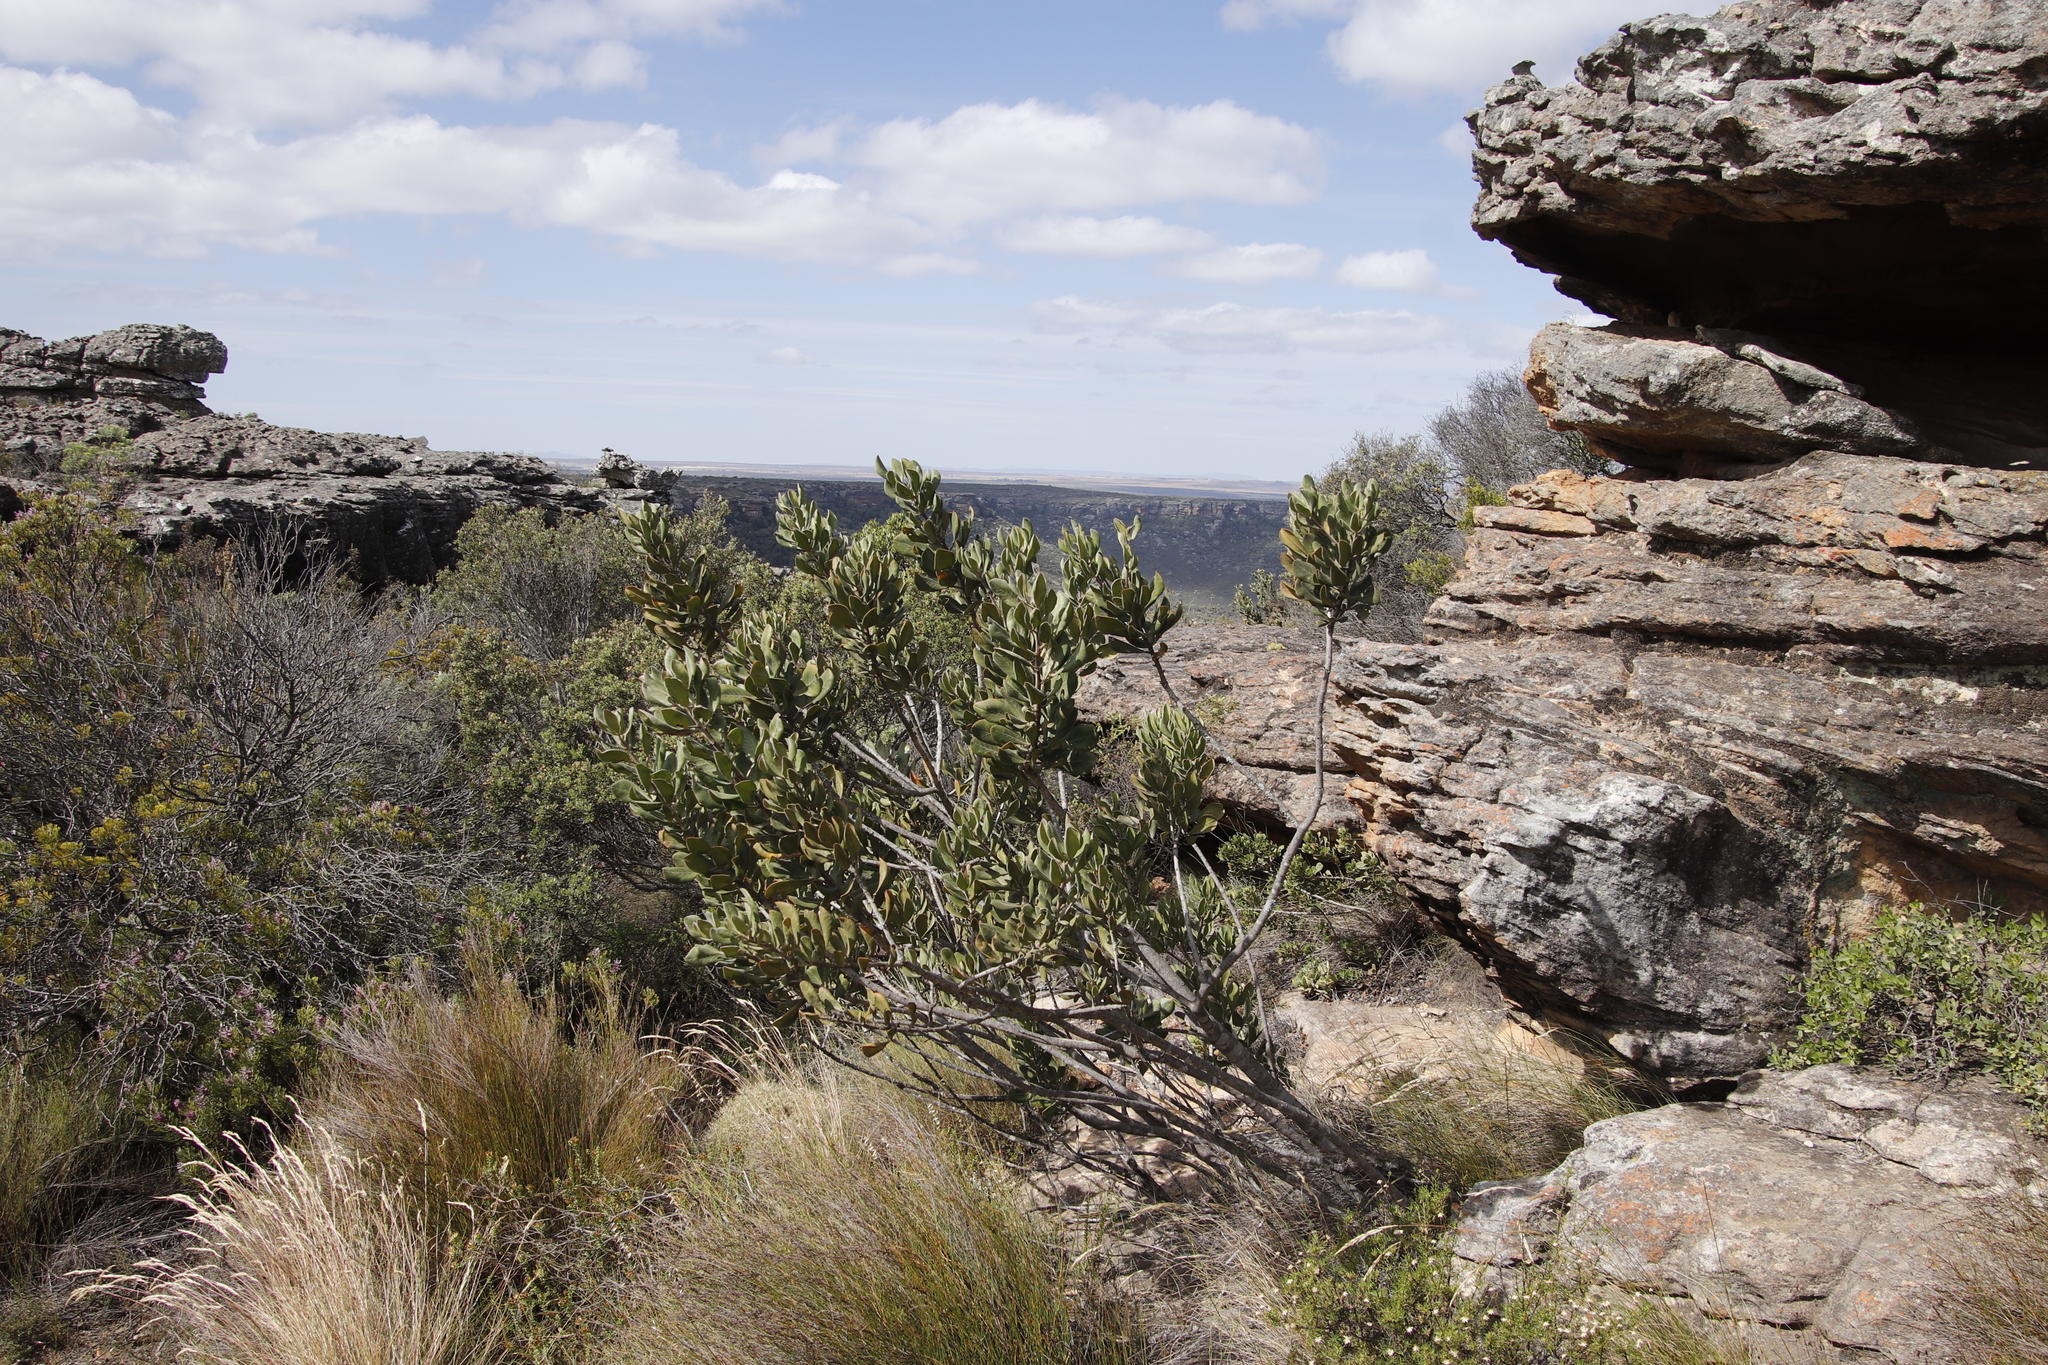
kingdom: Plantae
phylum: Tracheophyta
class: Magnoliopsida
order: Sapindales
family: Anacardiaceae
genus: Searsia
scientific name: Searsia scytophylla
